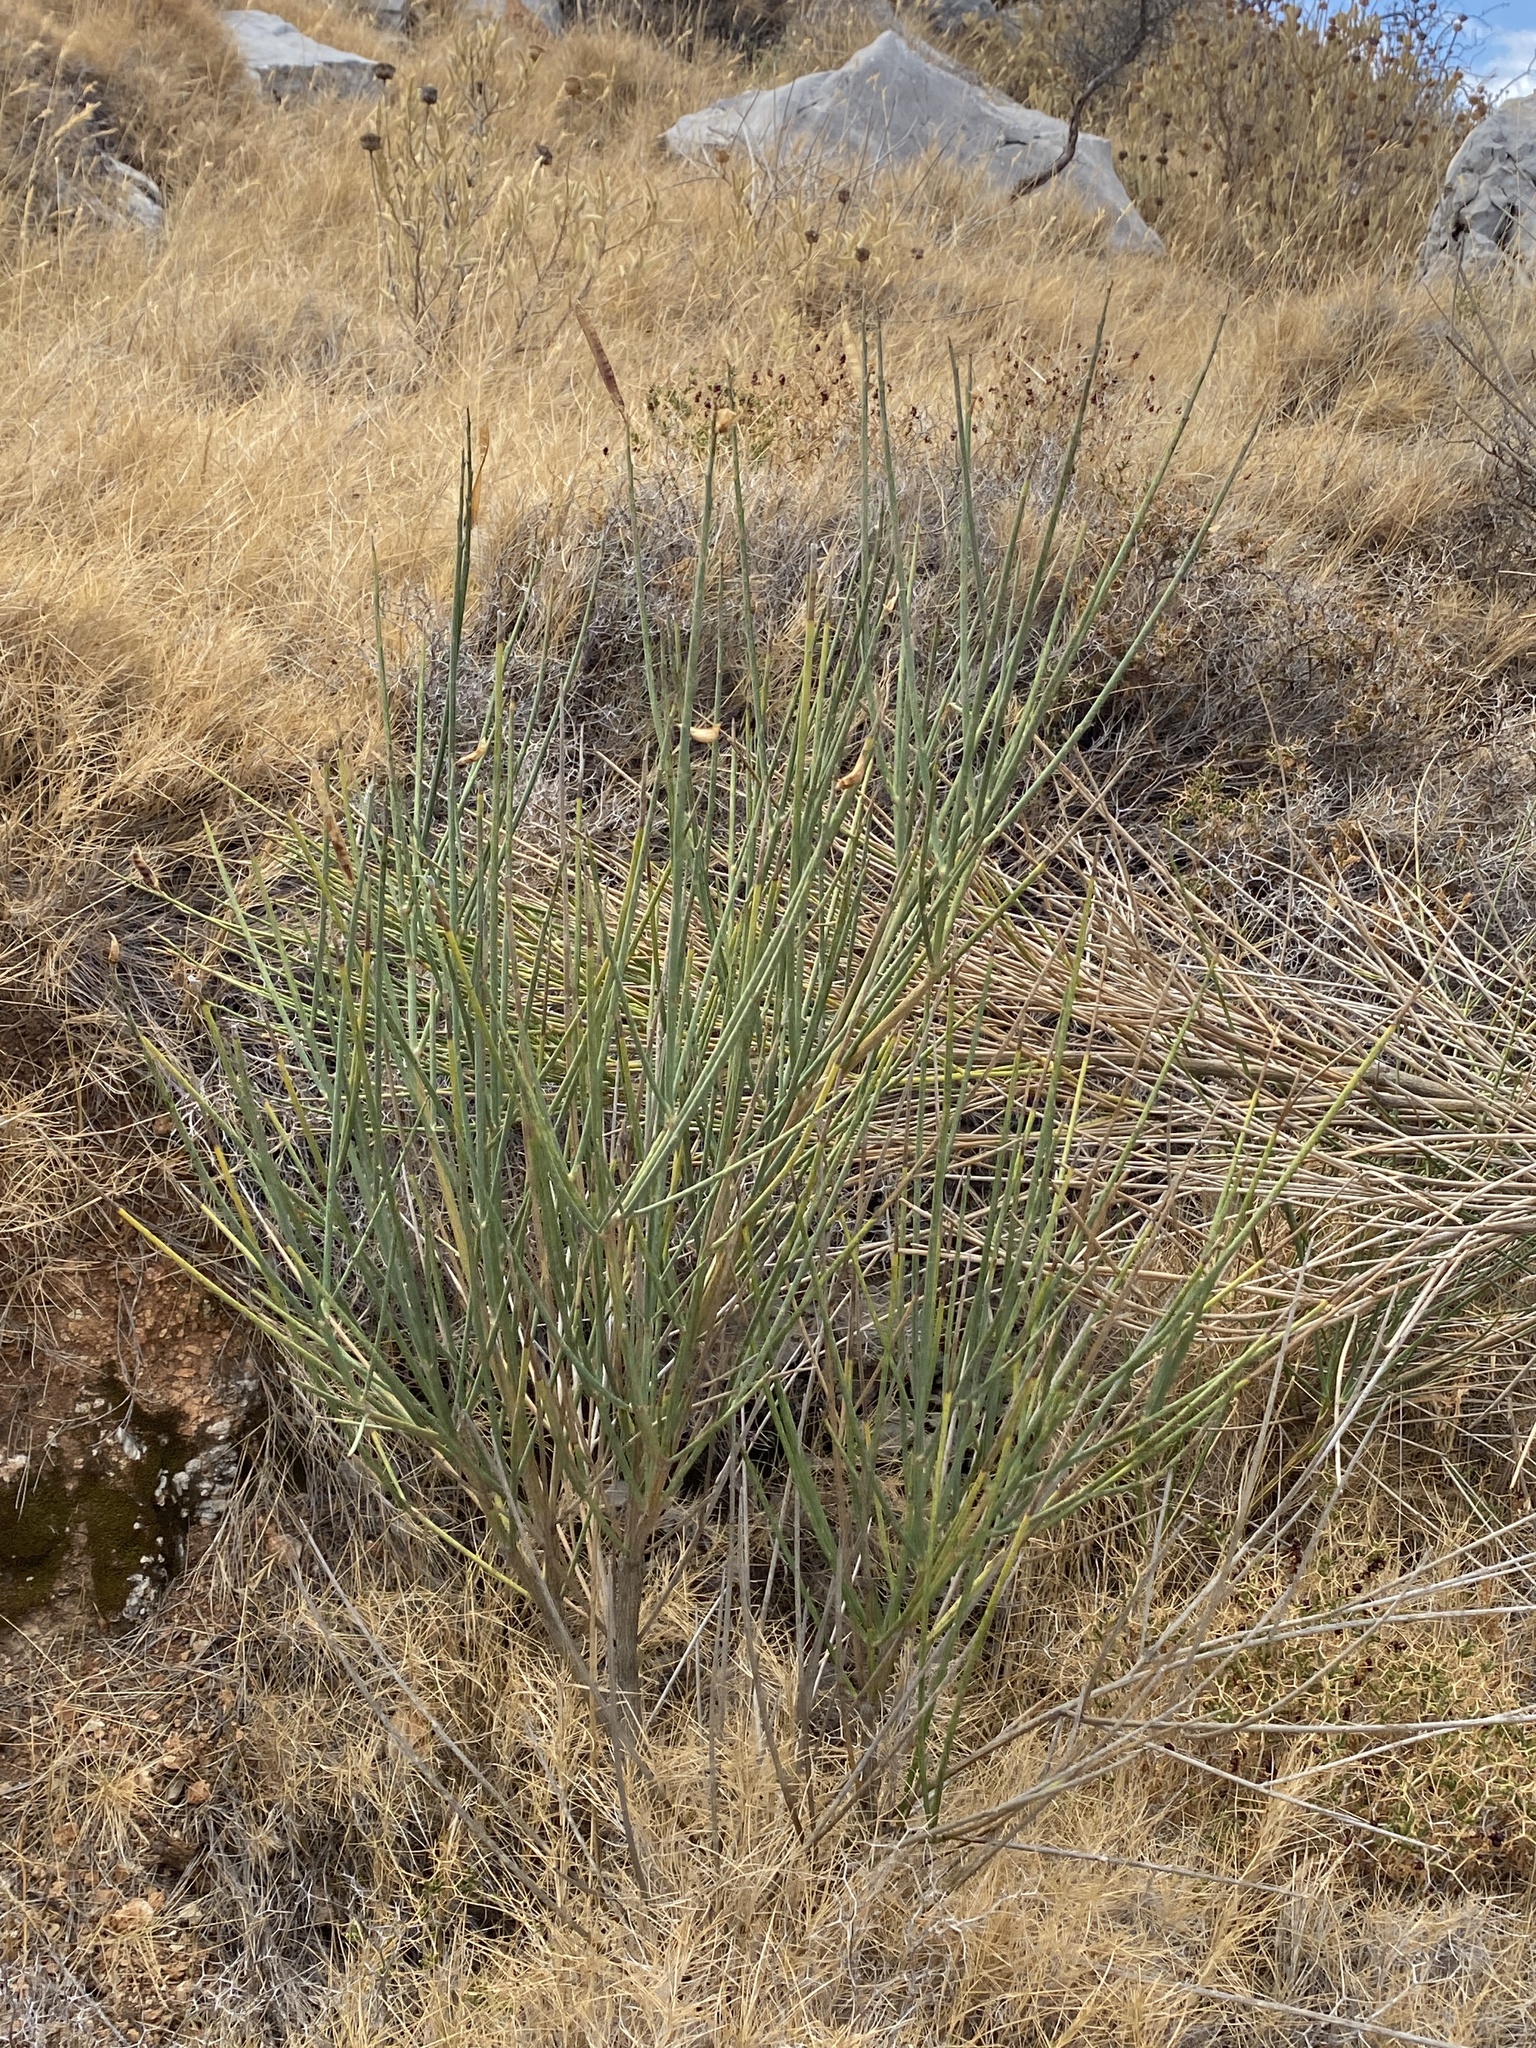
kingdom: Plantae
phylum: Tracheophyta
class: Magnoliopsida
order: Fabales
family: Fabaceae
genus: Spartium
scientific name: Spartium junceum
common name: Spanish broom
